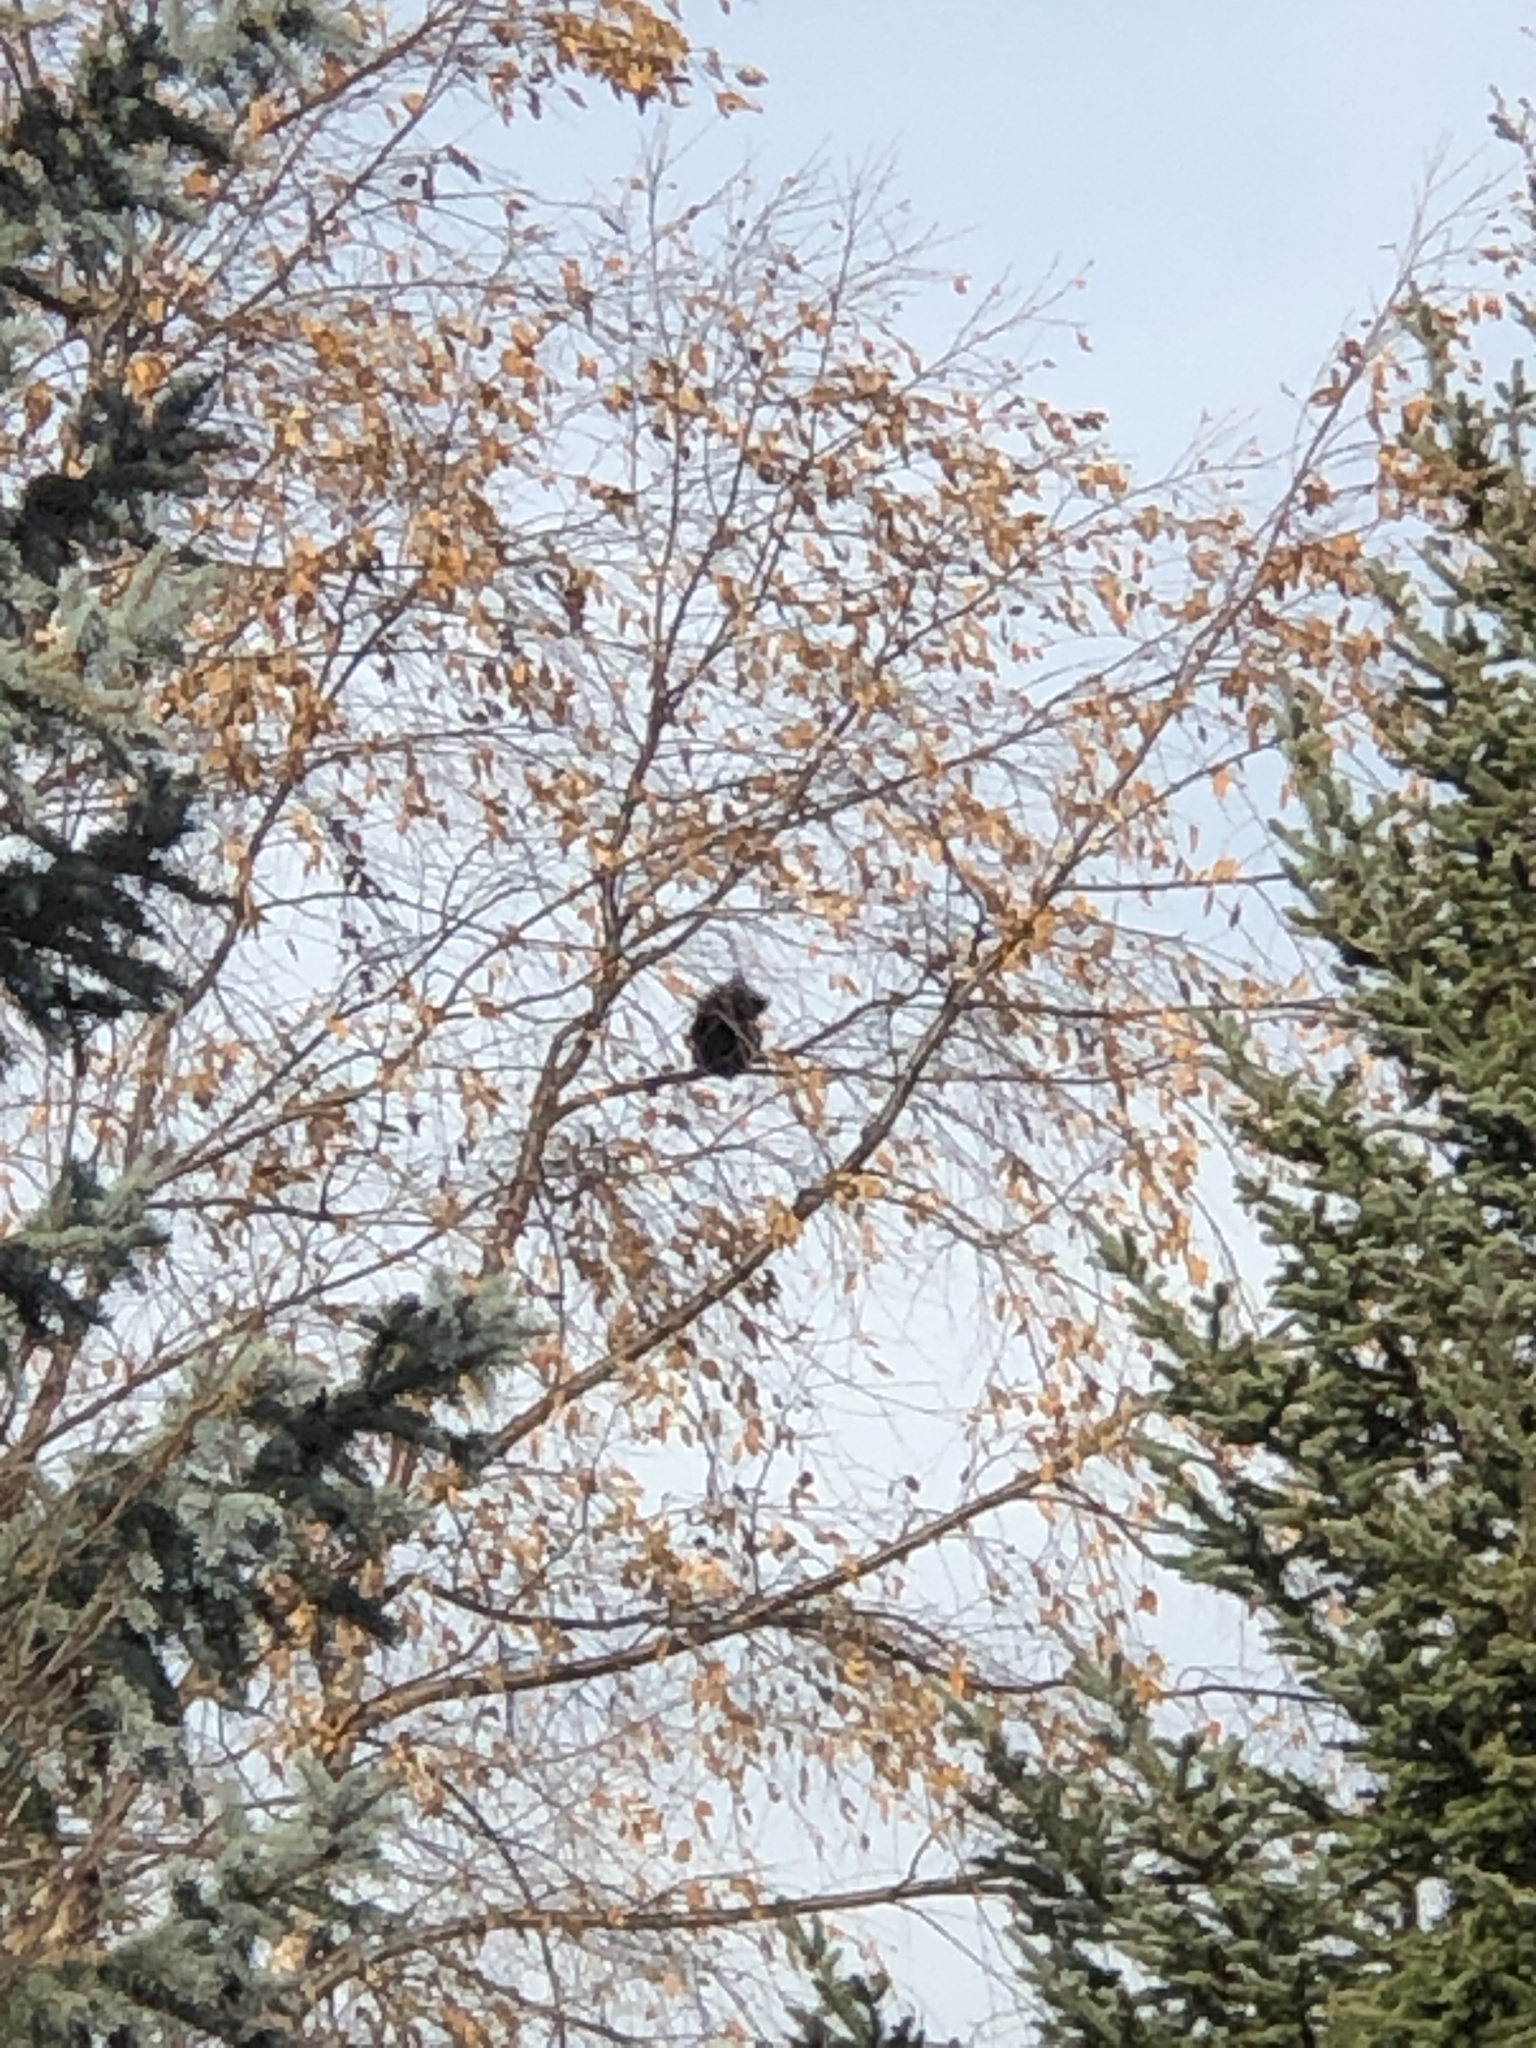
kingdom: Animalia
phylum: Chordata
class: Mammalia
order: Rodentia
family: Sciuridae
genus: Sciurus
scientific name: Sciurus carolinensis
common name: Eastern gray squirrel
